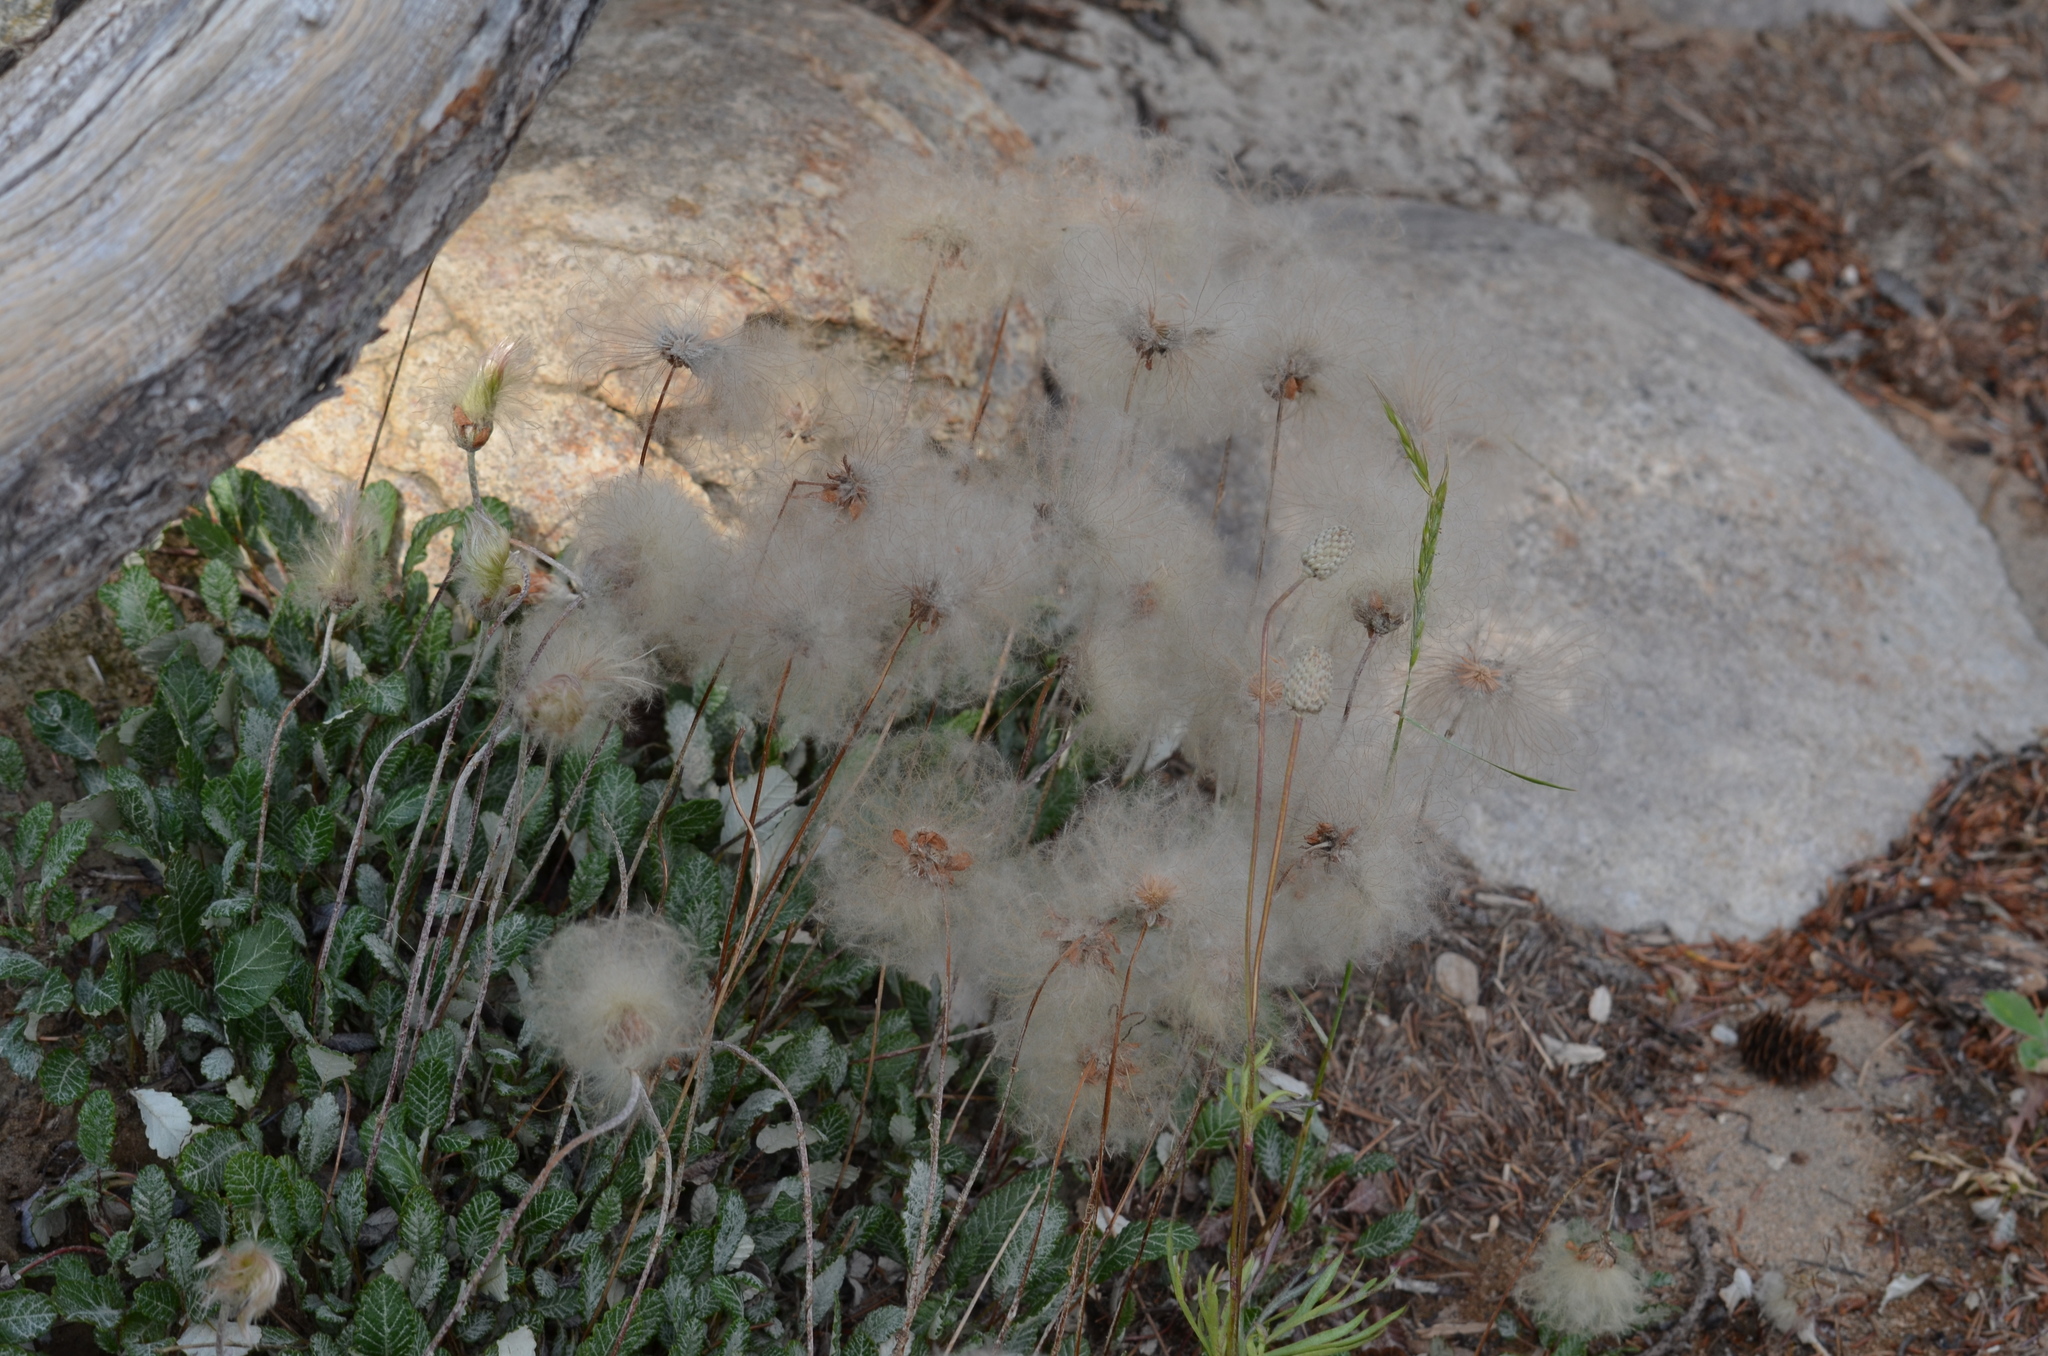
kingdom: Plantae
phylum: Tracheophyta
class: Magnoliopsida
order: Rosales
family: Rosaceae
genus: Dryas
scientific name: Dryas drummondii
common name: Drummond's dryad
